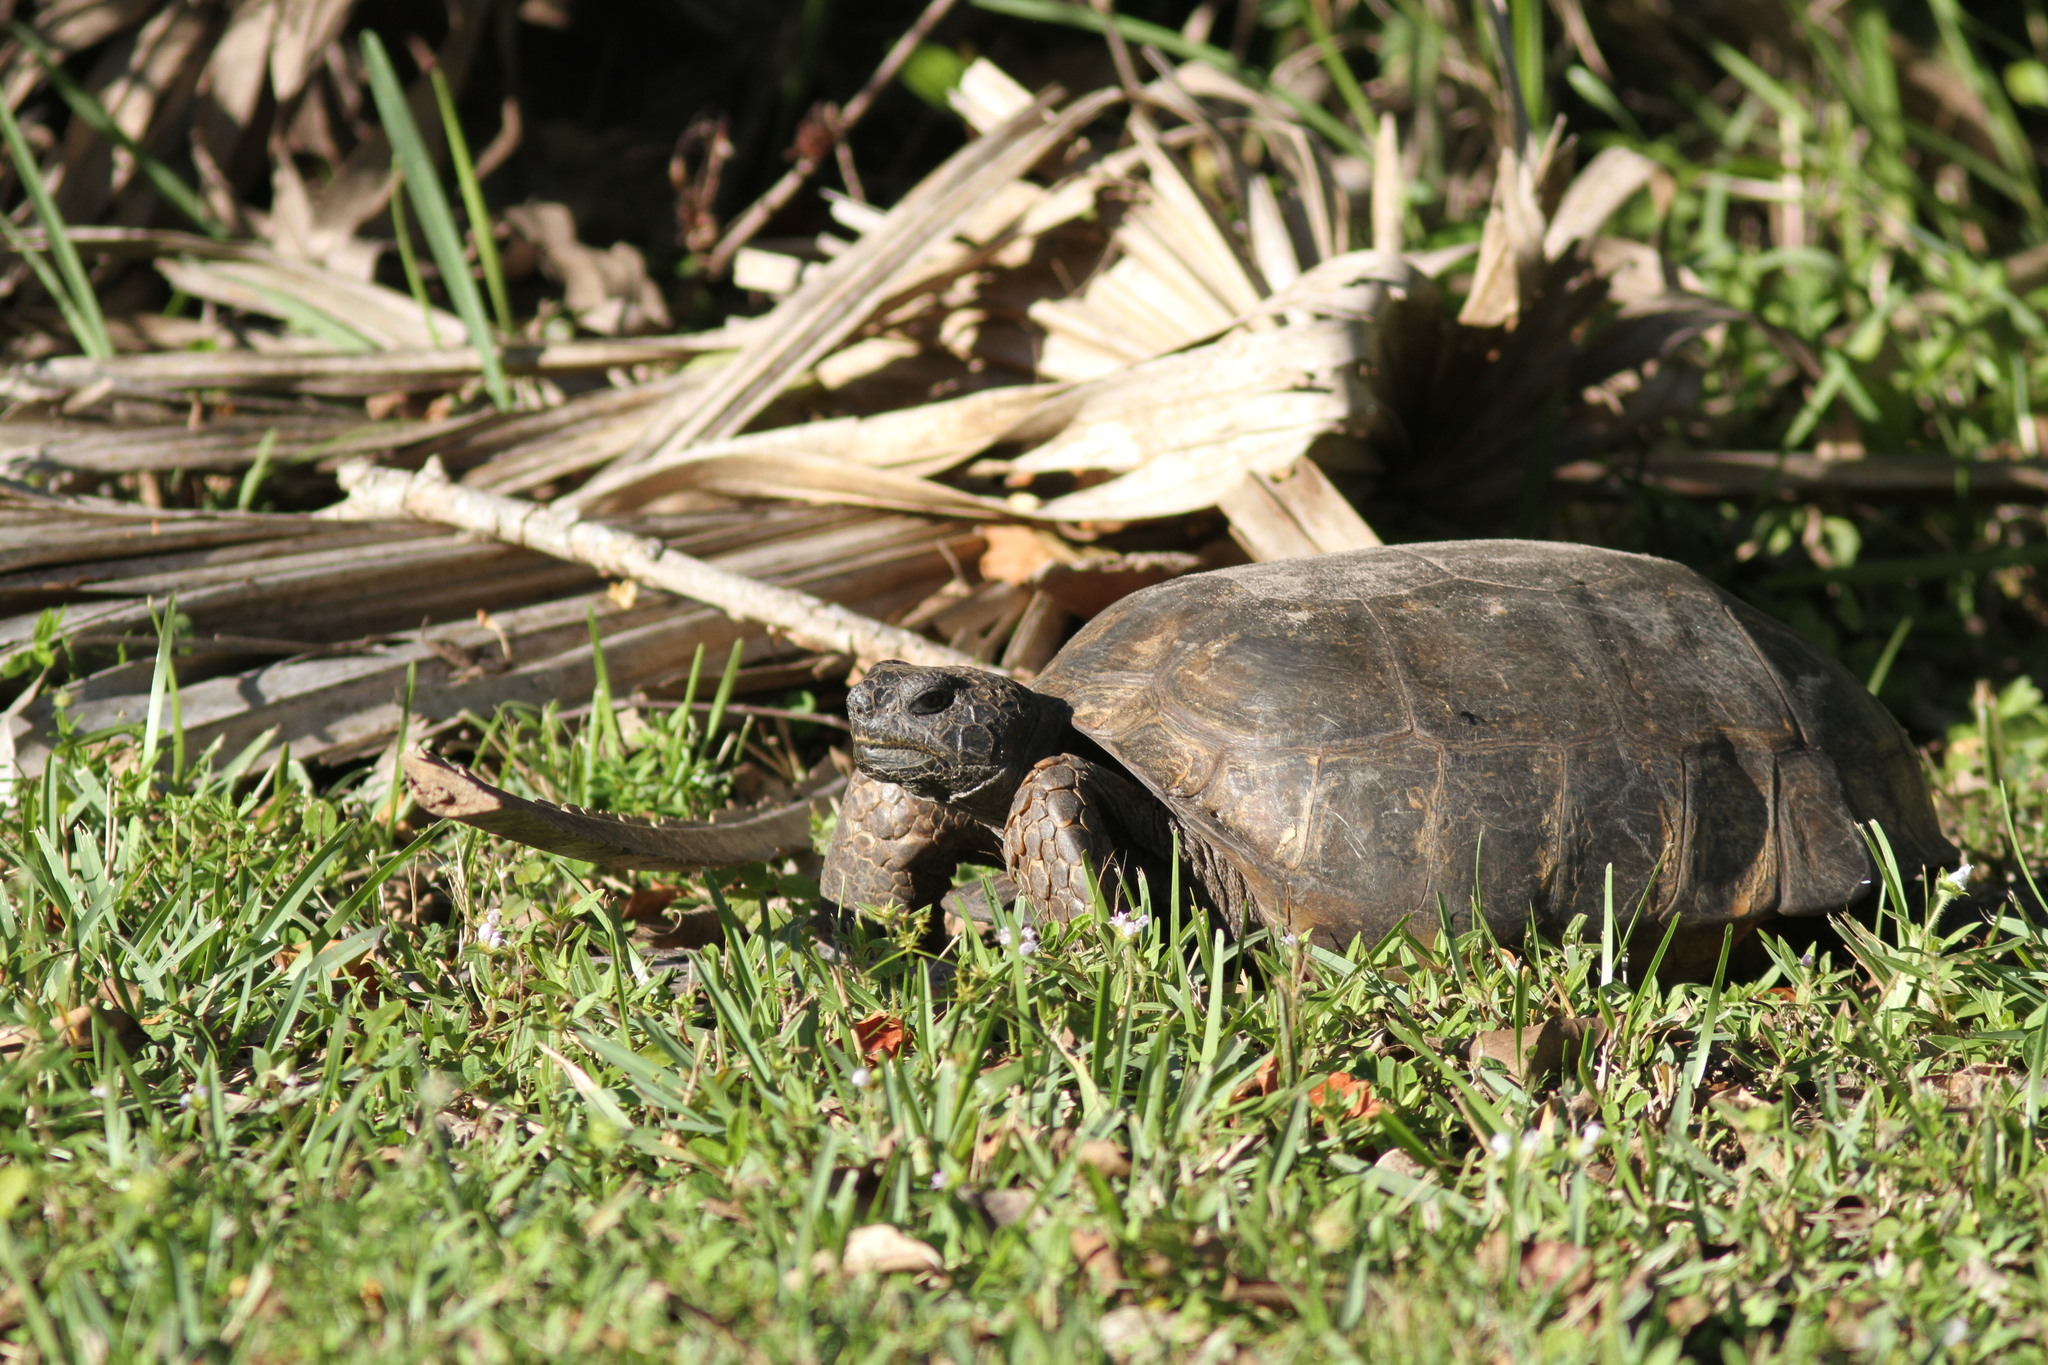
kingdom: Animalia
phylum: Chordata
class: Testudines
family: Testudinidae
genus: Gopherus
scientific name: Gopherus polyphemus
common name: Florida gopher tortoise
